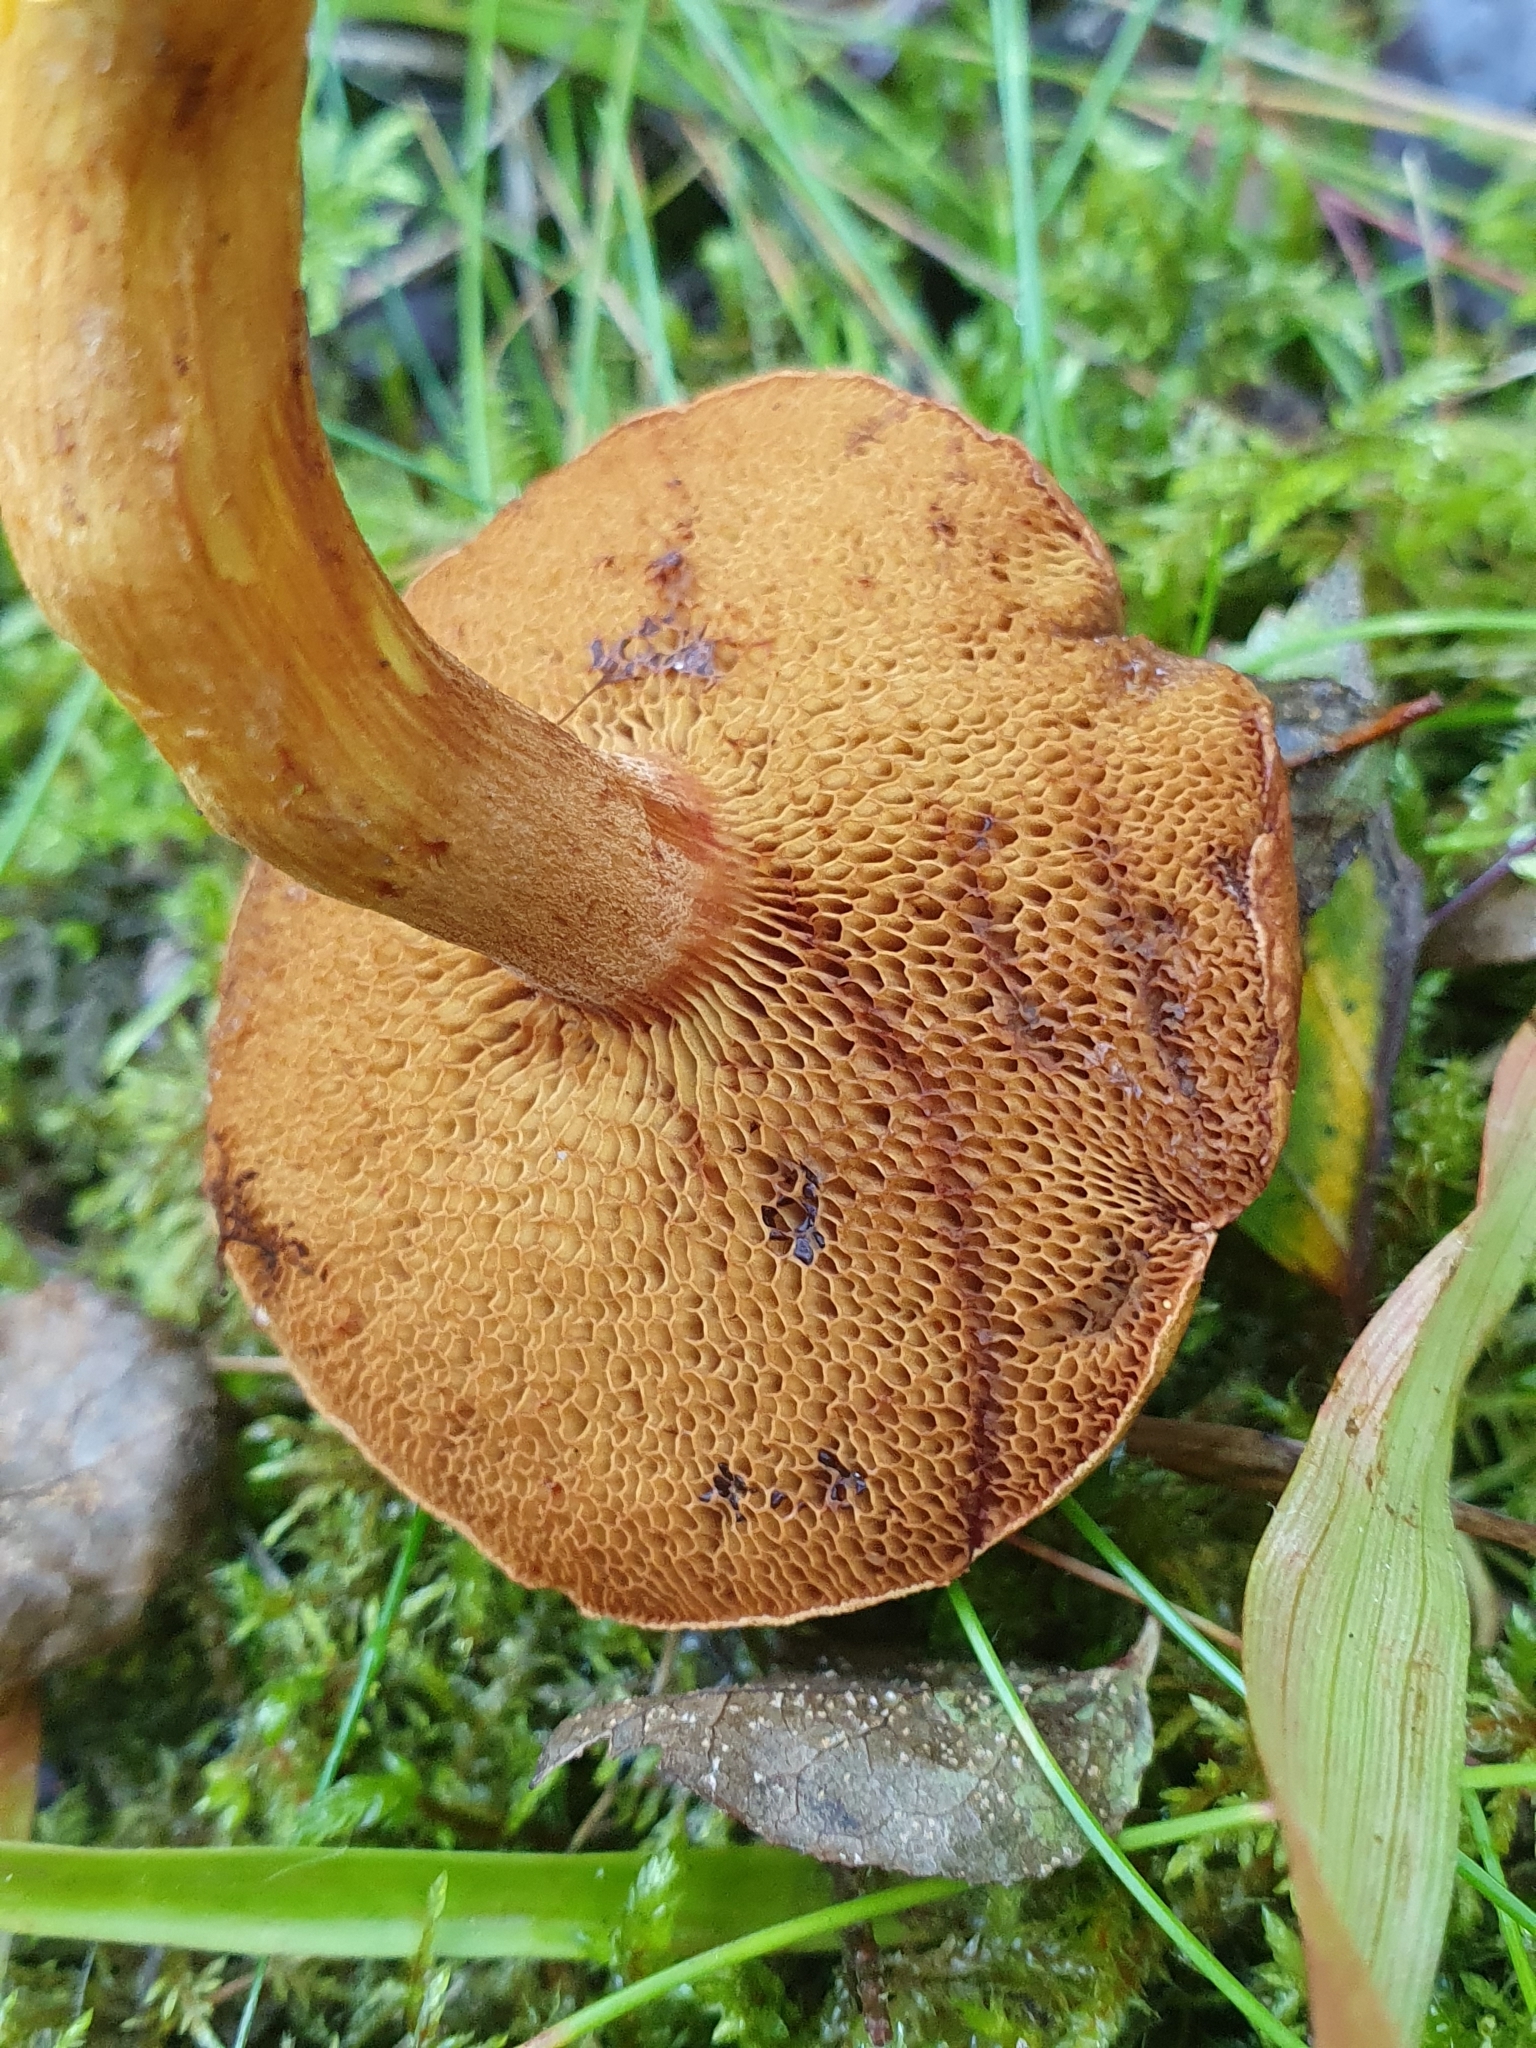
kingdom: Fungi
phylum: Basidiomycota
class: Agaricomycetes
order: Boletales
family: Boletaceae
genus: Chalciporus
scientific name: Chalciporus piperatus
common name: Peppery bolete
